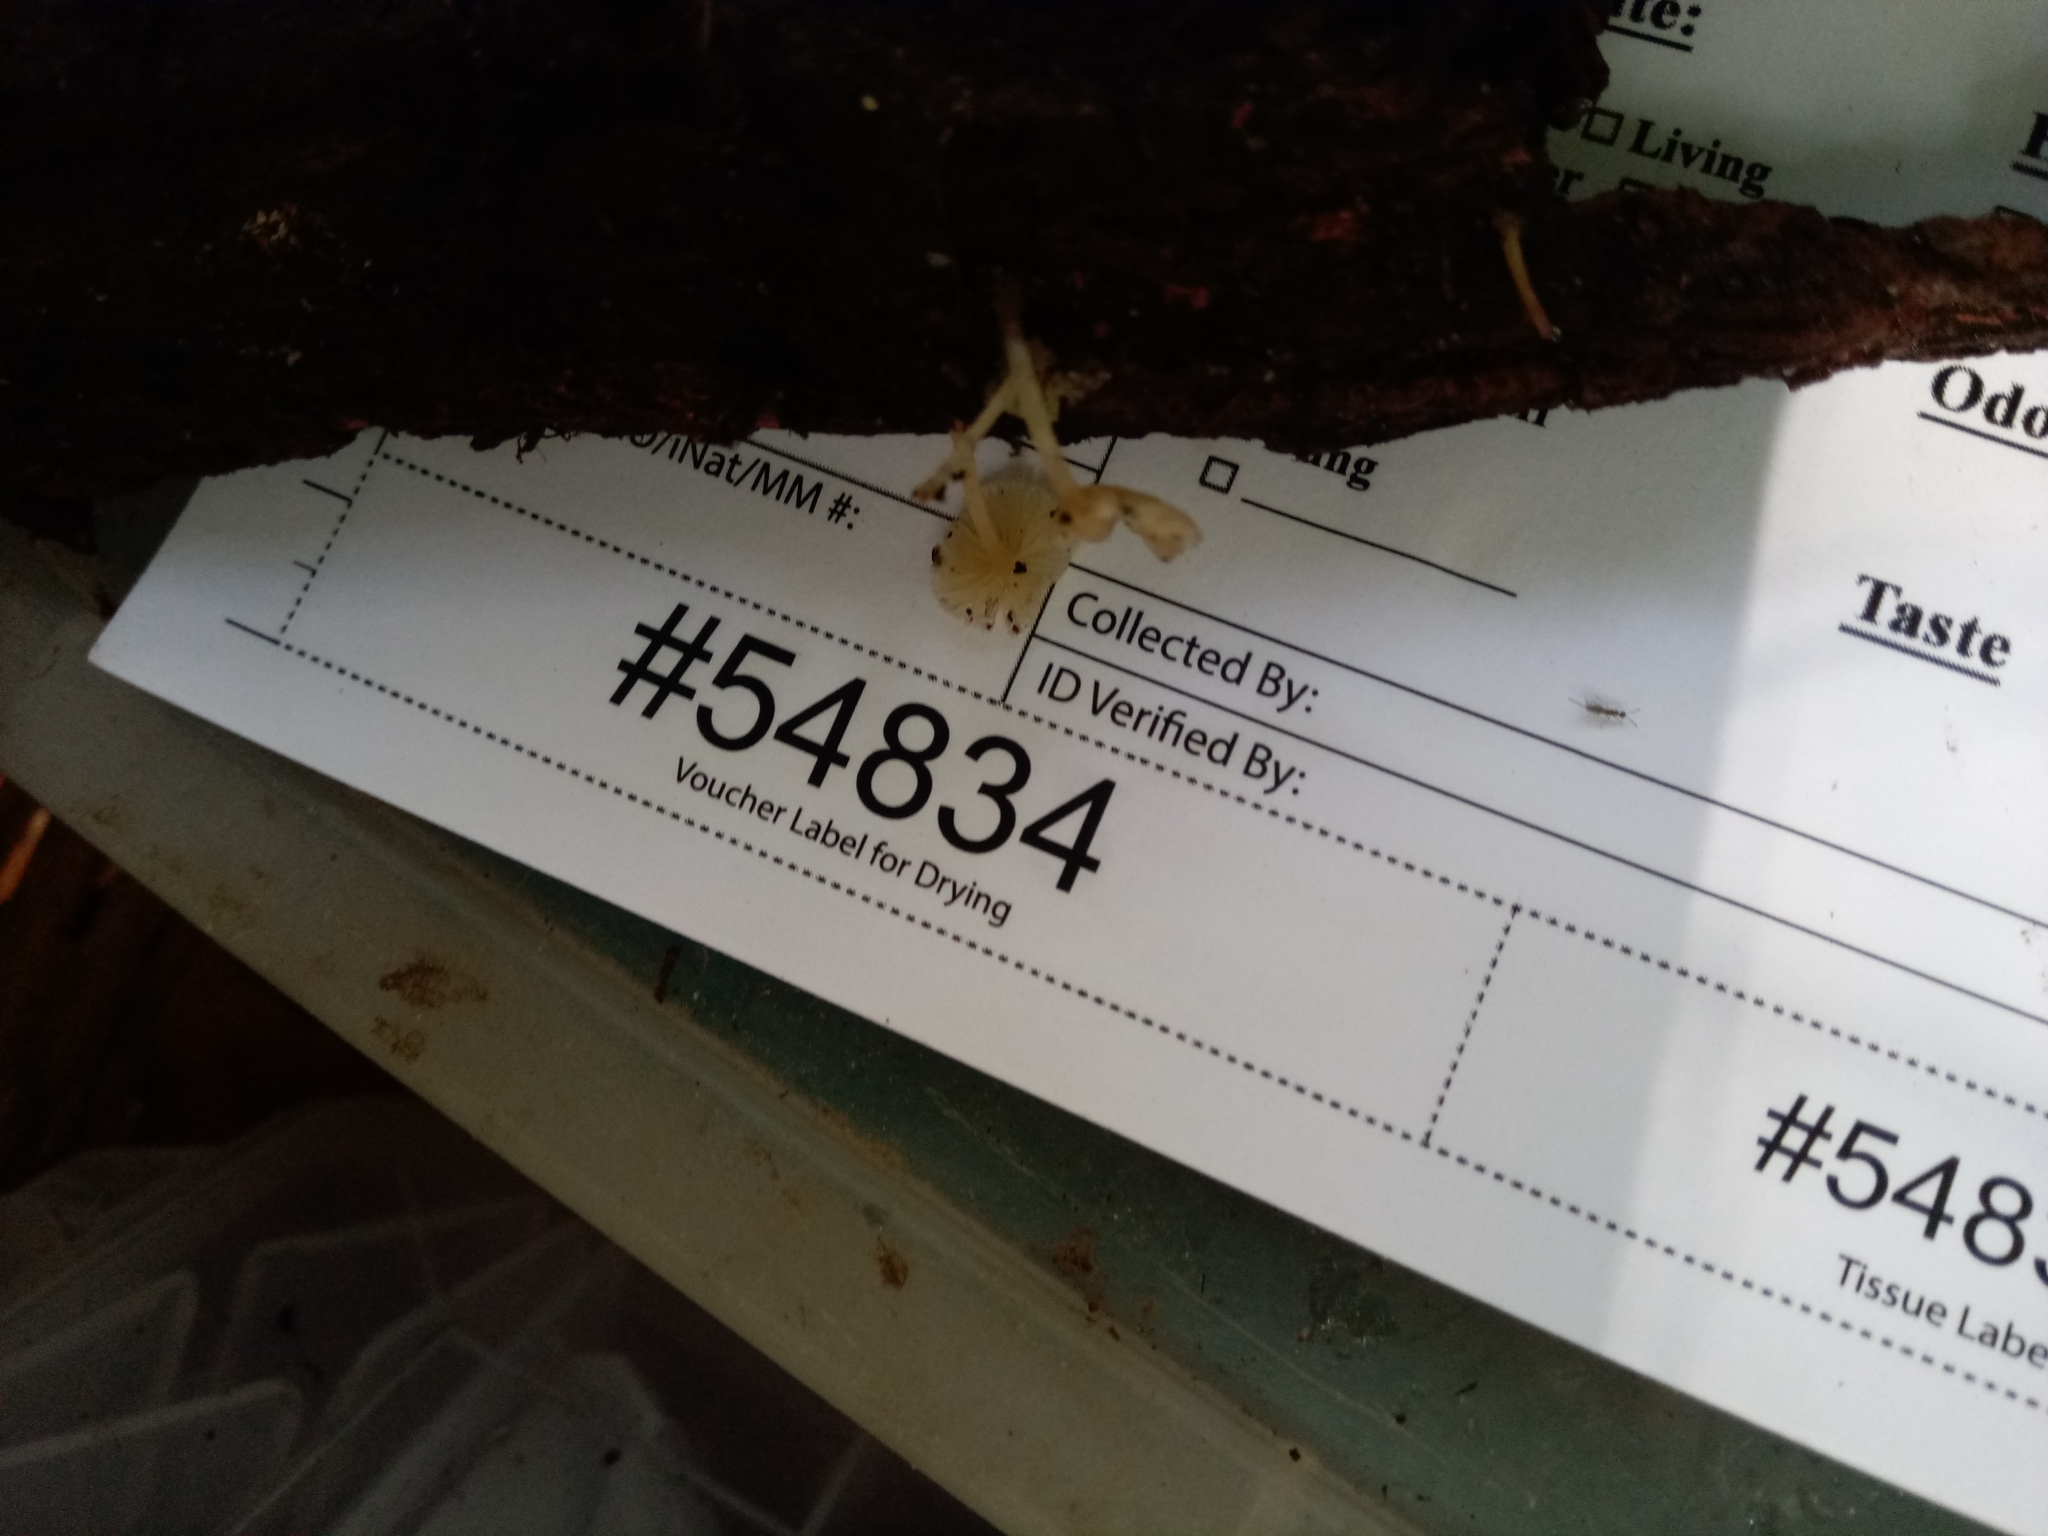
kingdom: Fungi
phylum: Basidiomycota
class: Agaricomycetes
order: Agaricales
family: Porotheleaceae
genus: Phloeomana
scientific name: Phloeomana minutula
